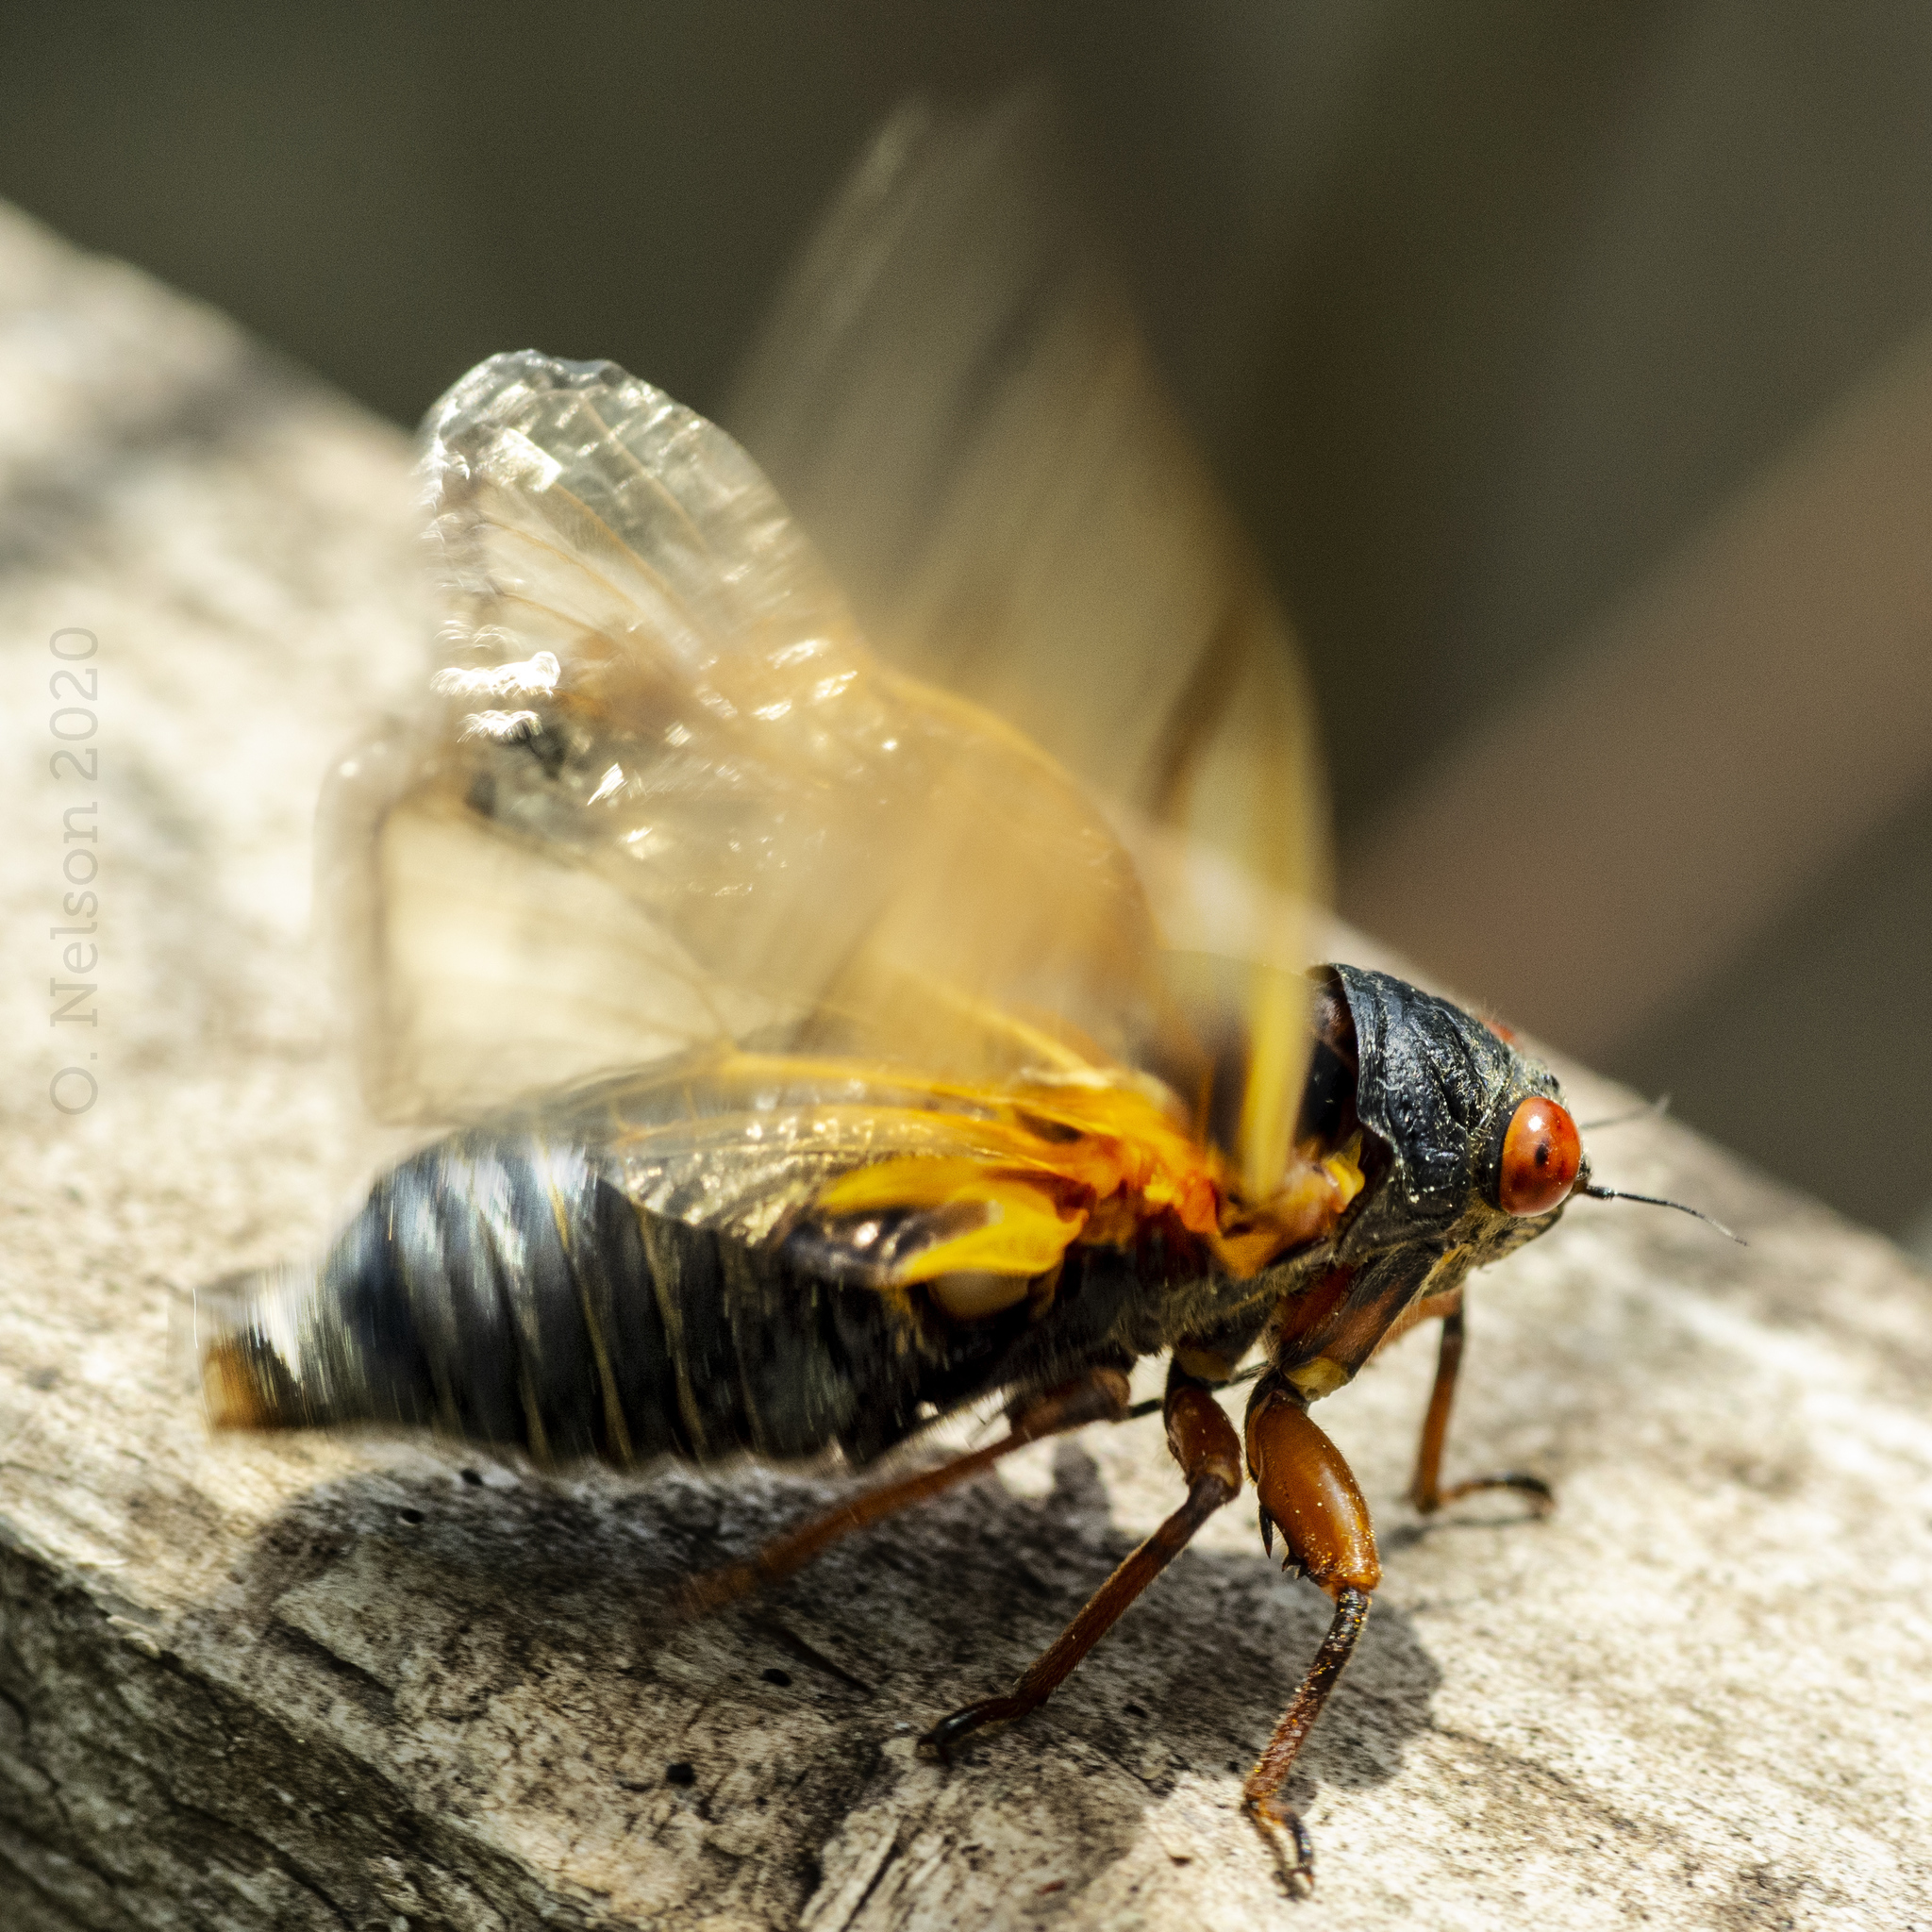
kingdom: Animalia
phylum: Arthropoda
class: Insecta
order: Hemiptera
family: Cicadidae
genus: Magicicada
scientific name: Magicicada cassini
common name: Cassin's 17-year cicada
